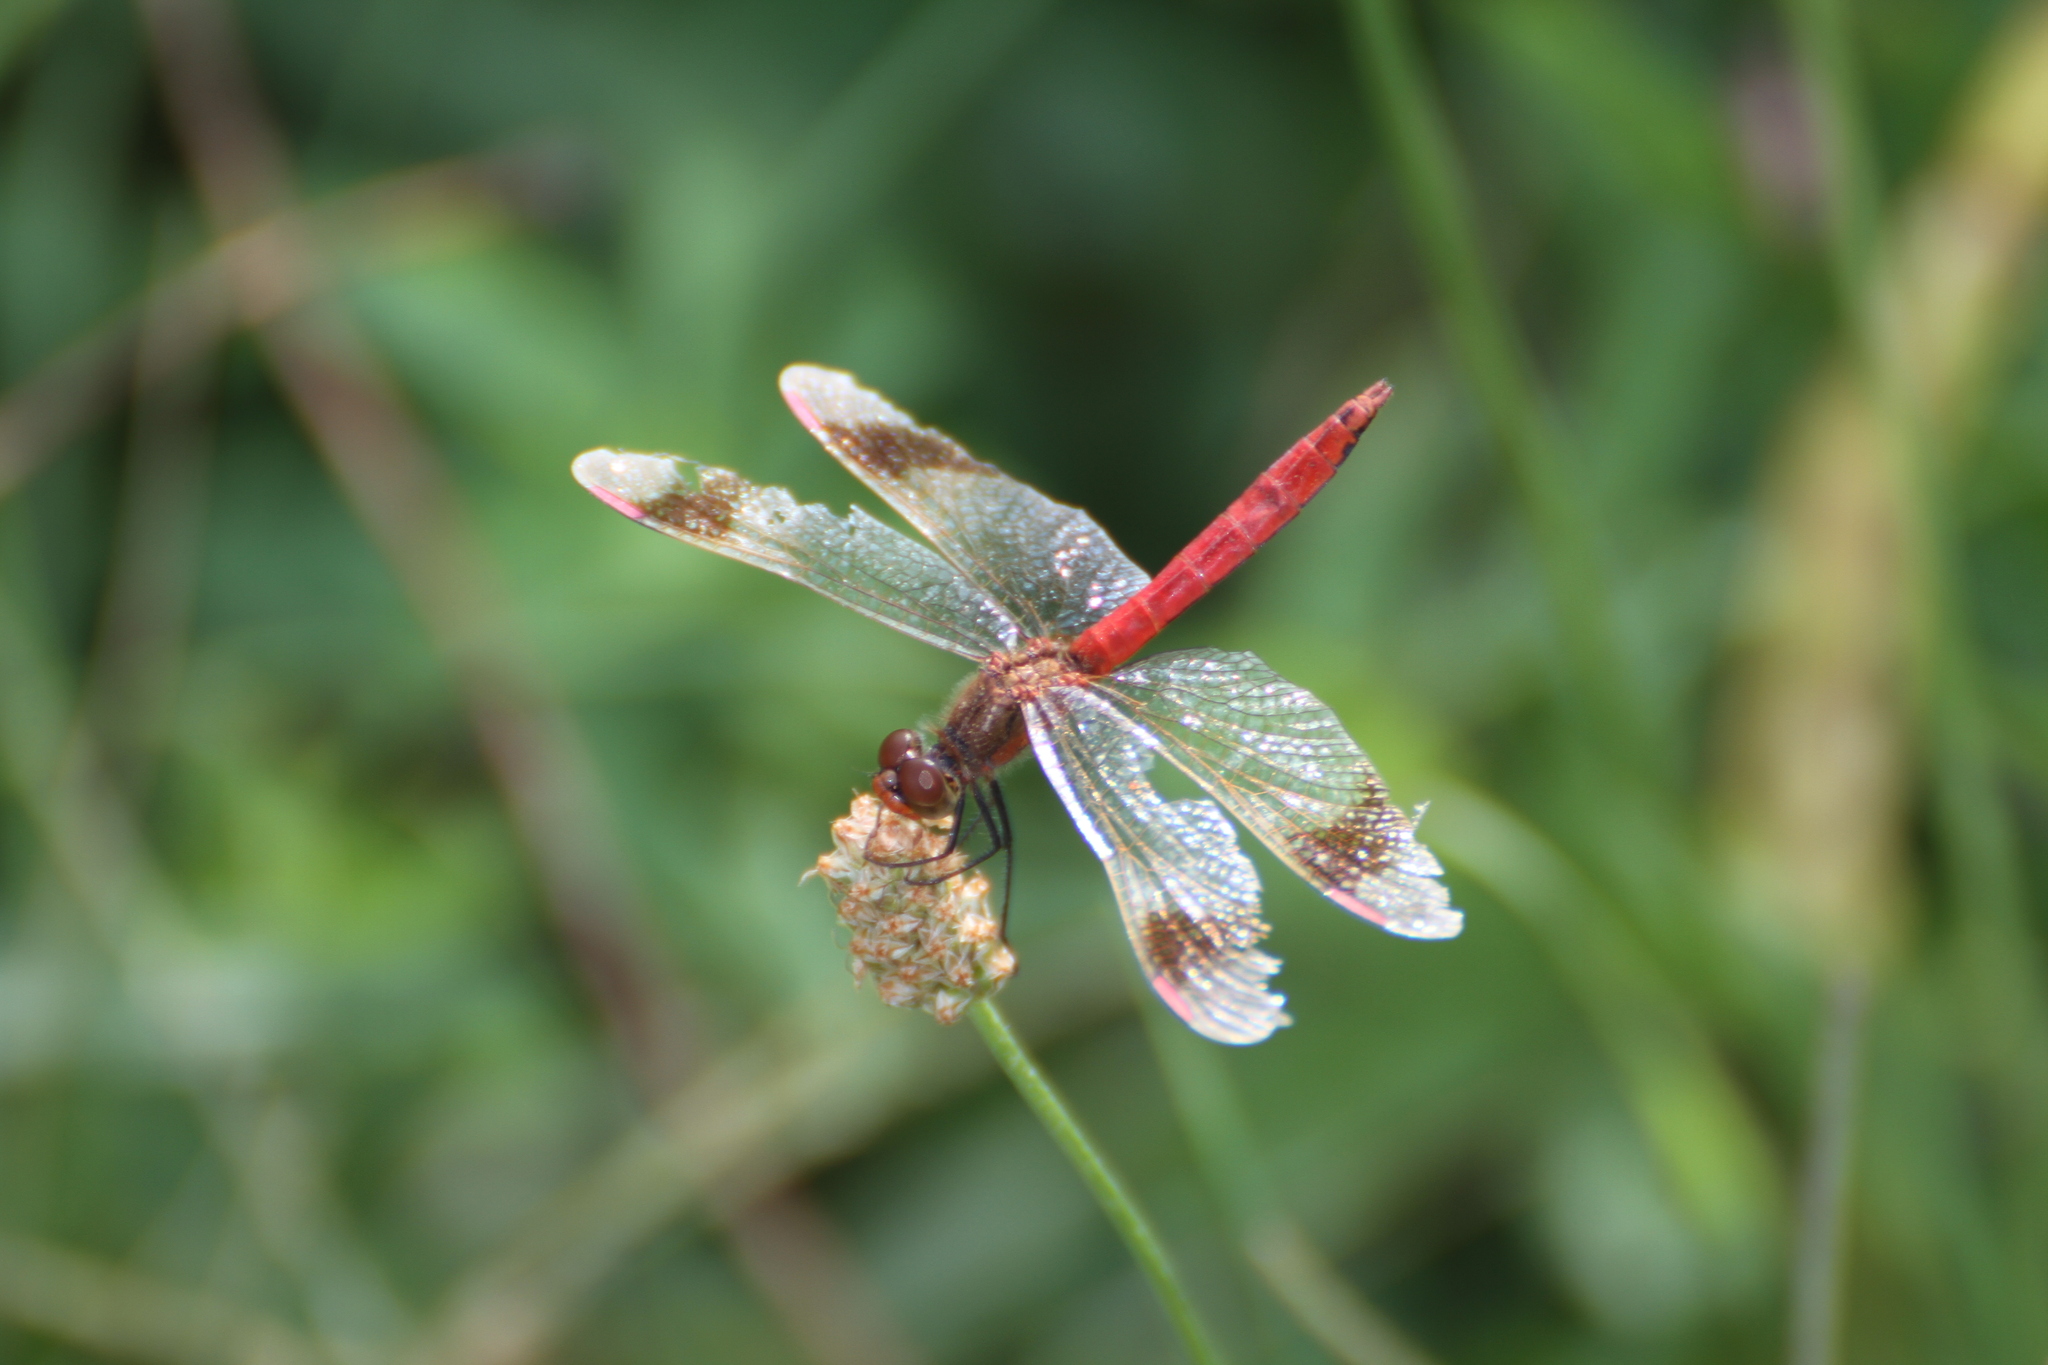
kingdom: Animalia
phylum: Arthropoda
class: Insecta
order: Odonata
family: Libellulidae
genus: Sympetrum
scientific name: Sympetrum pedemontanum
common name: Banded darter
